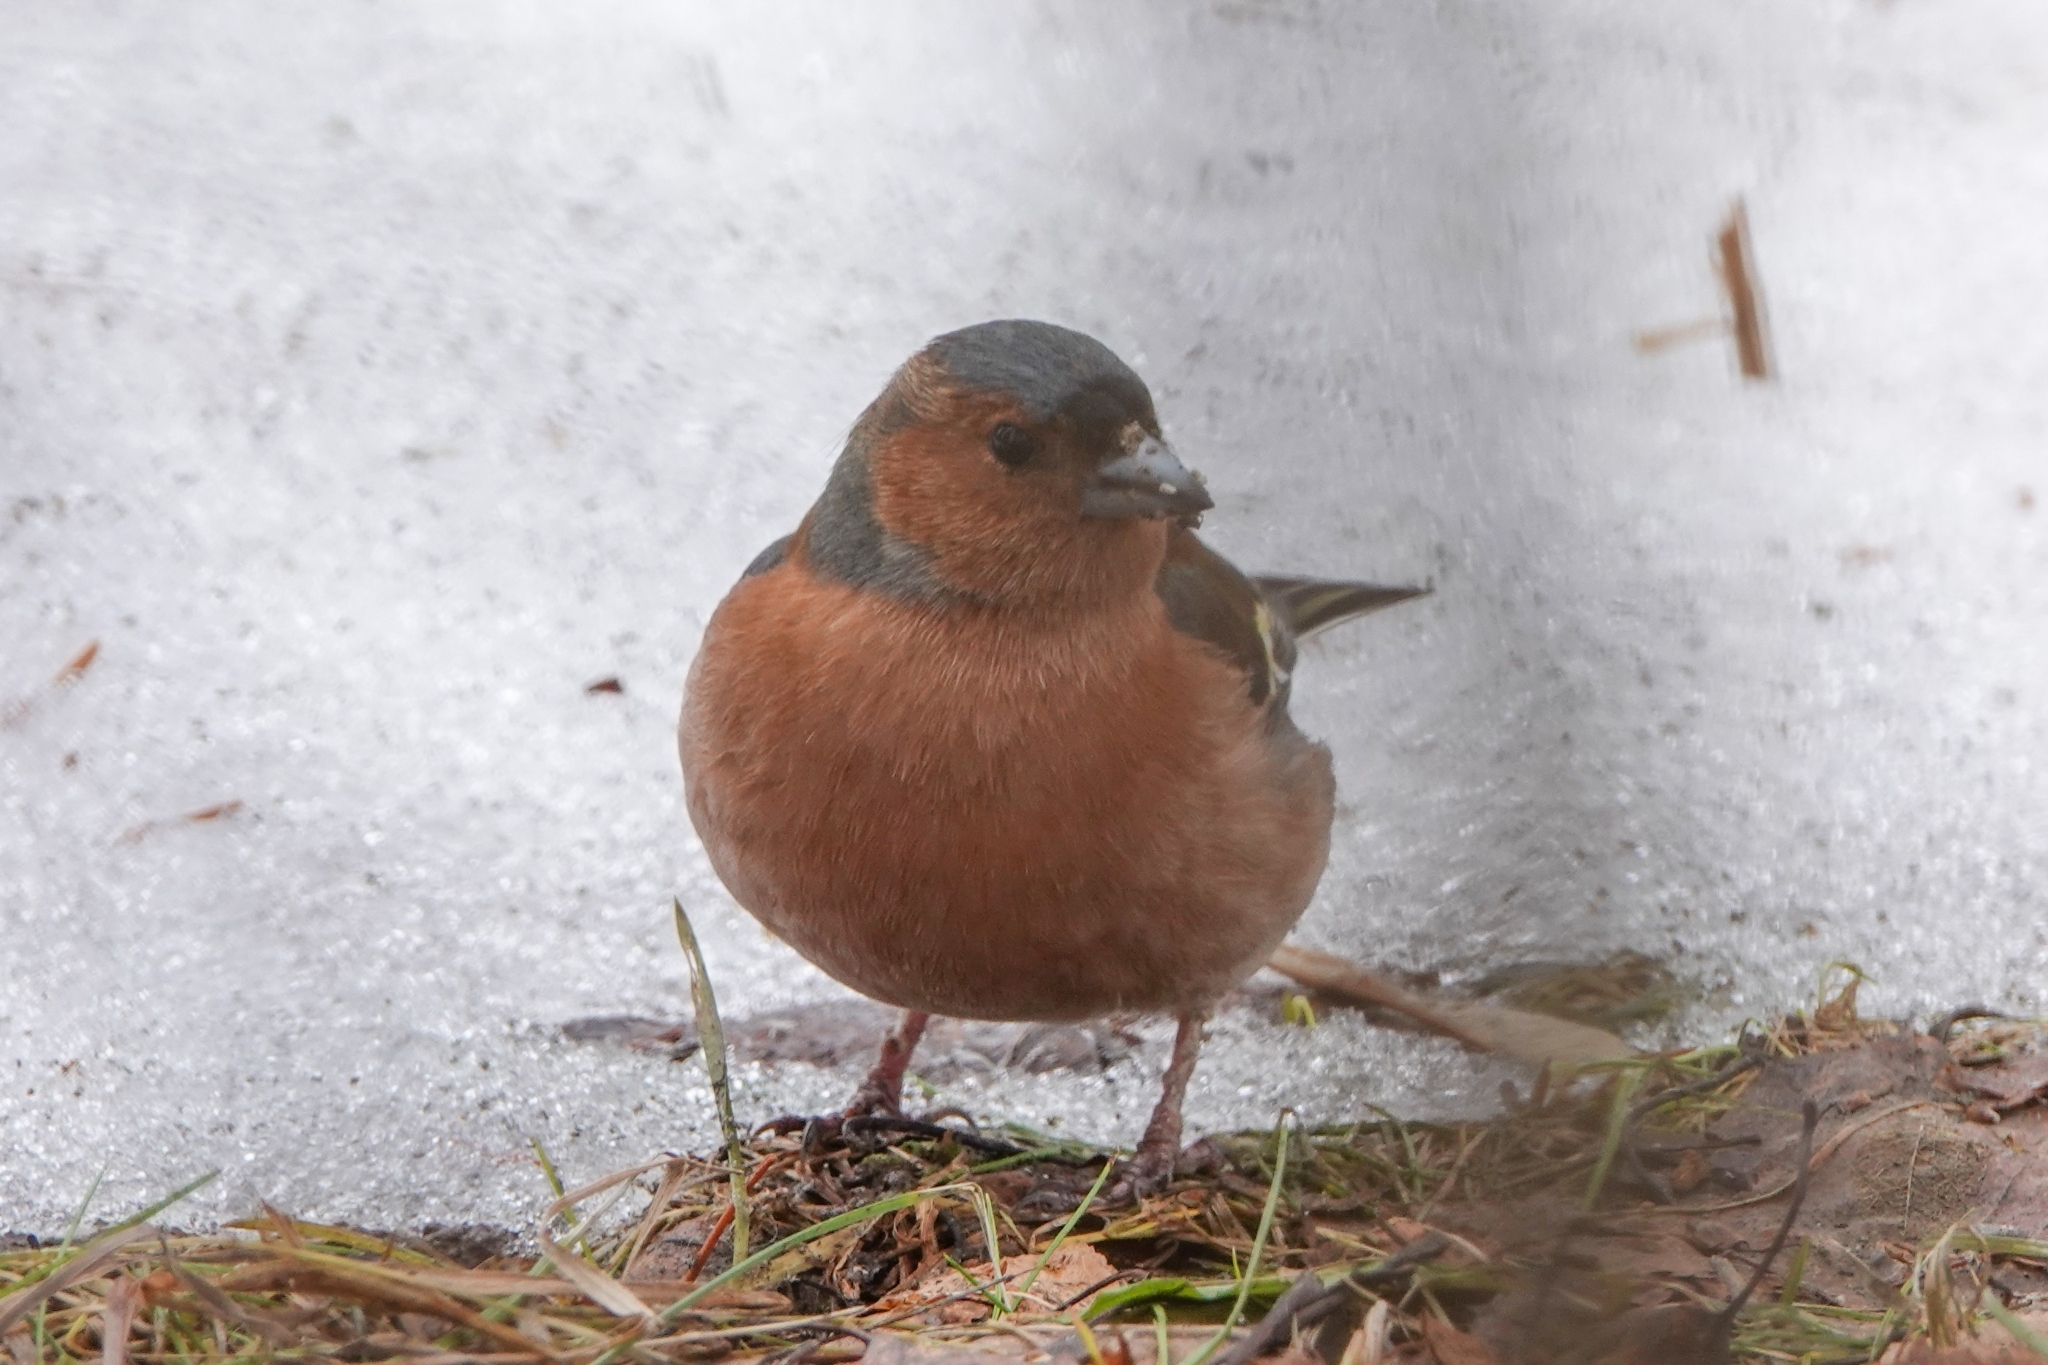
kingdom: Animalia
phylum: Chordata
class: Aves
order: Passeriformes
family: Fringillidae
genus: Fringilla
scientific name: Fringilla coelebs
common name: Common chaffinch
